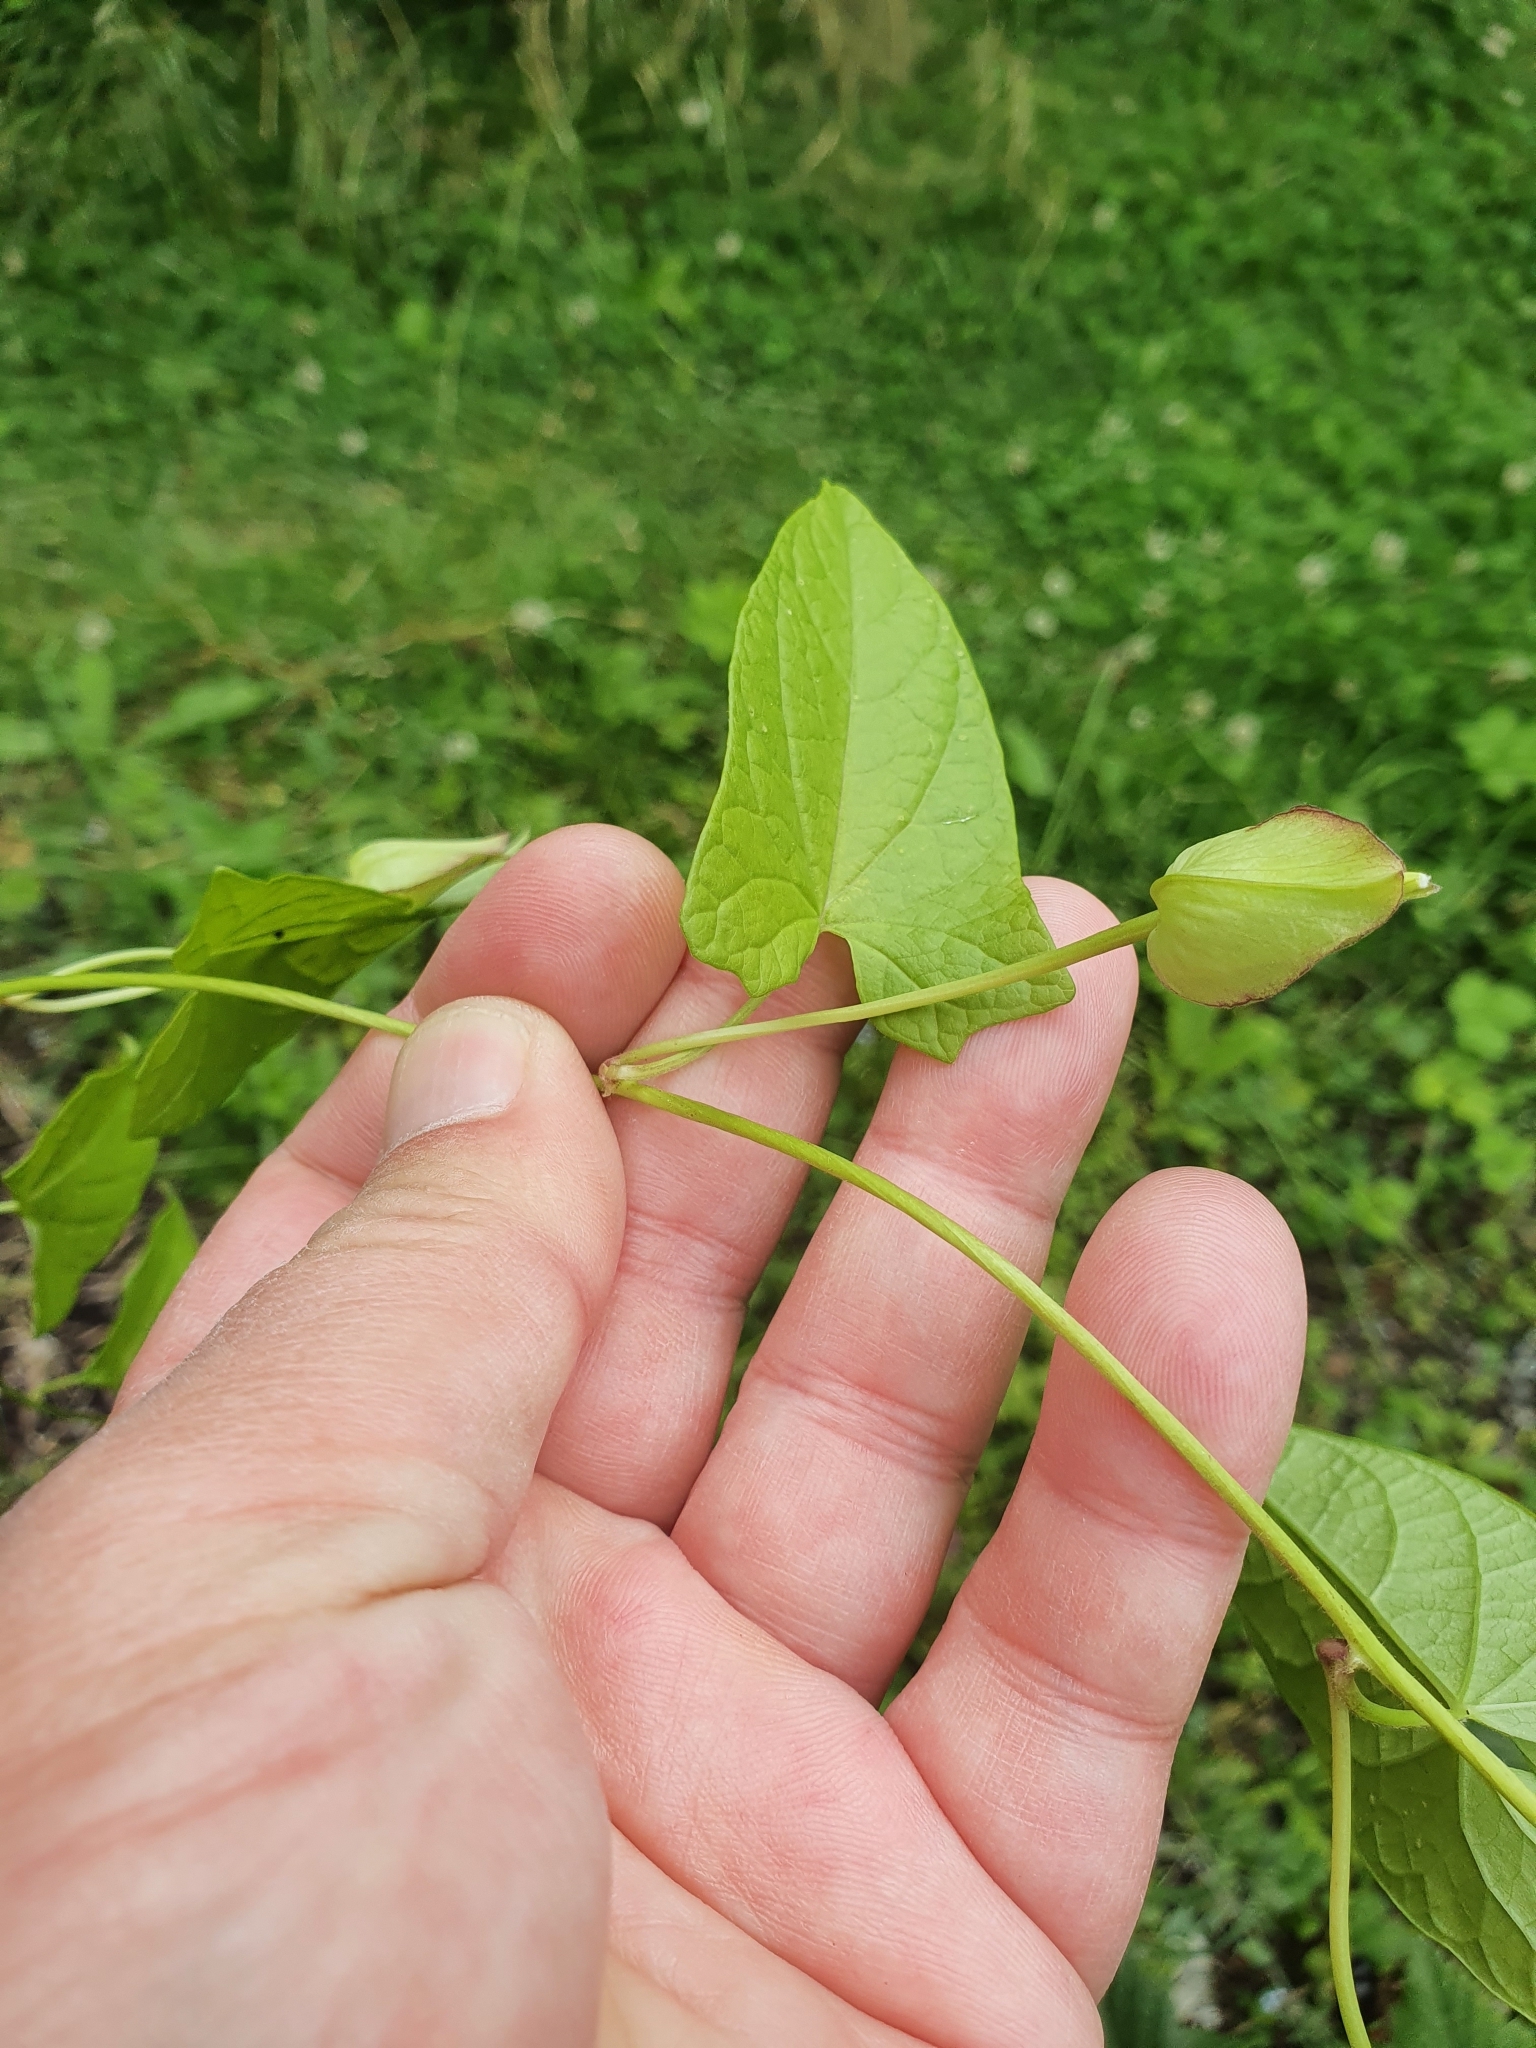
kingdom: Plantae
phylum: Tracheophyta
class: Magnoliopsida
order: Solanales
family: Convolvulaceae
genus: Calystegia
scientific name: Calystegia sepium
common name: Hedge bindweed
